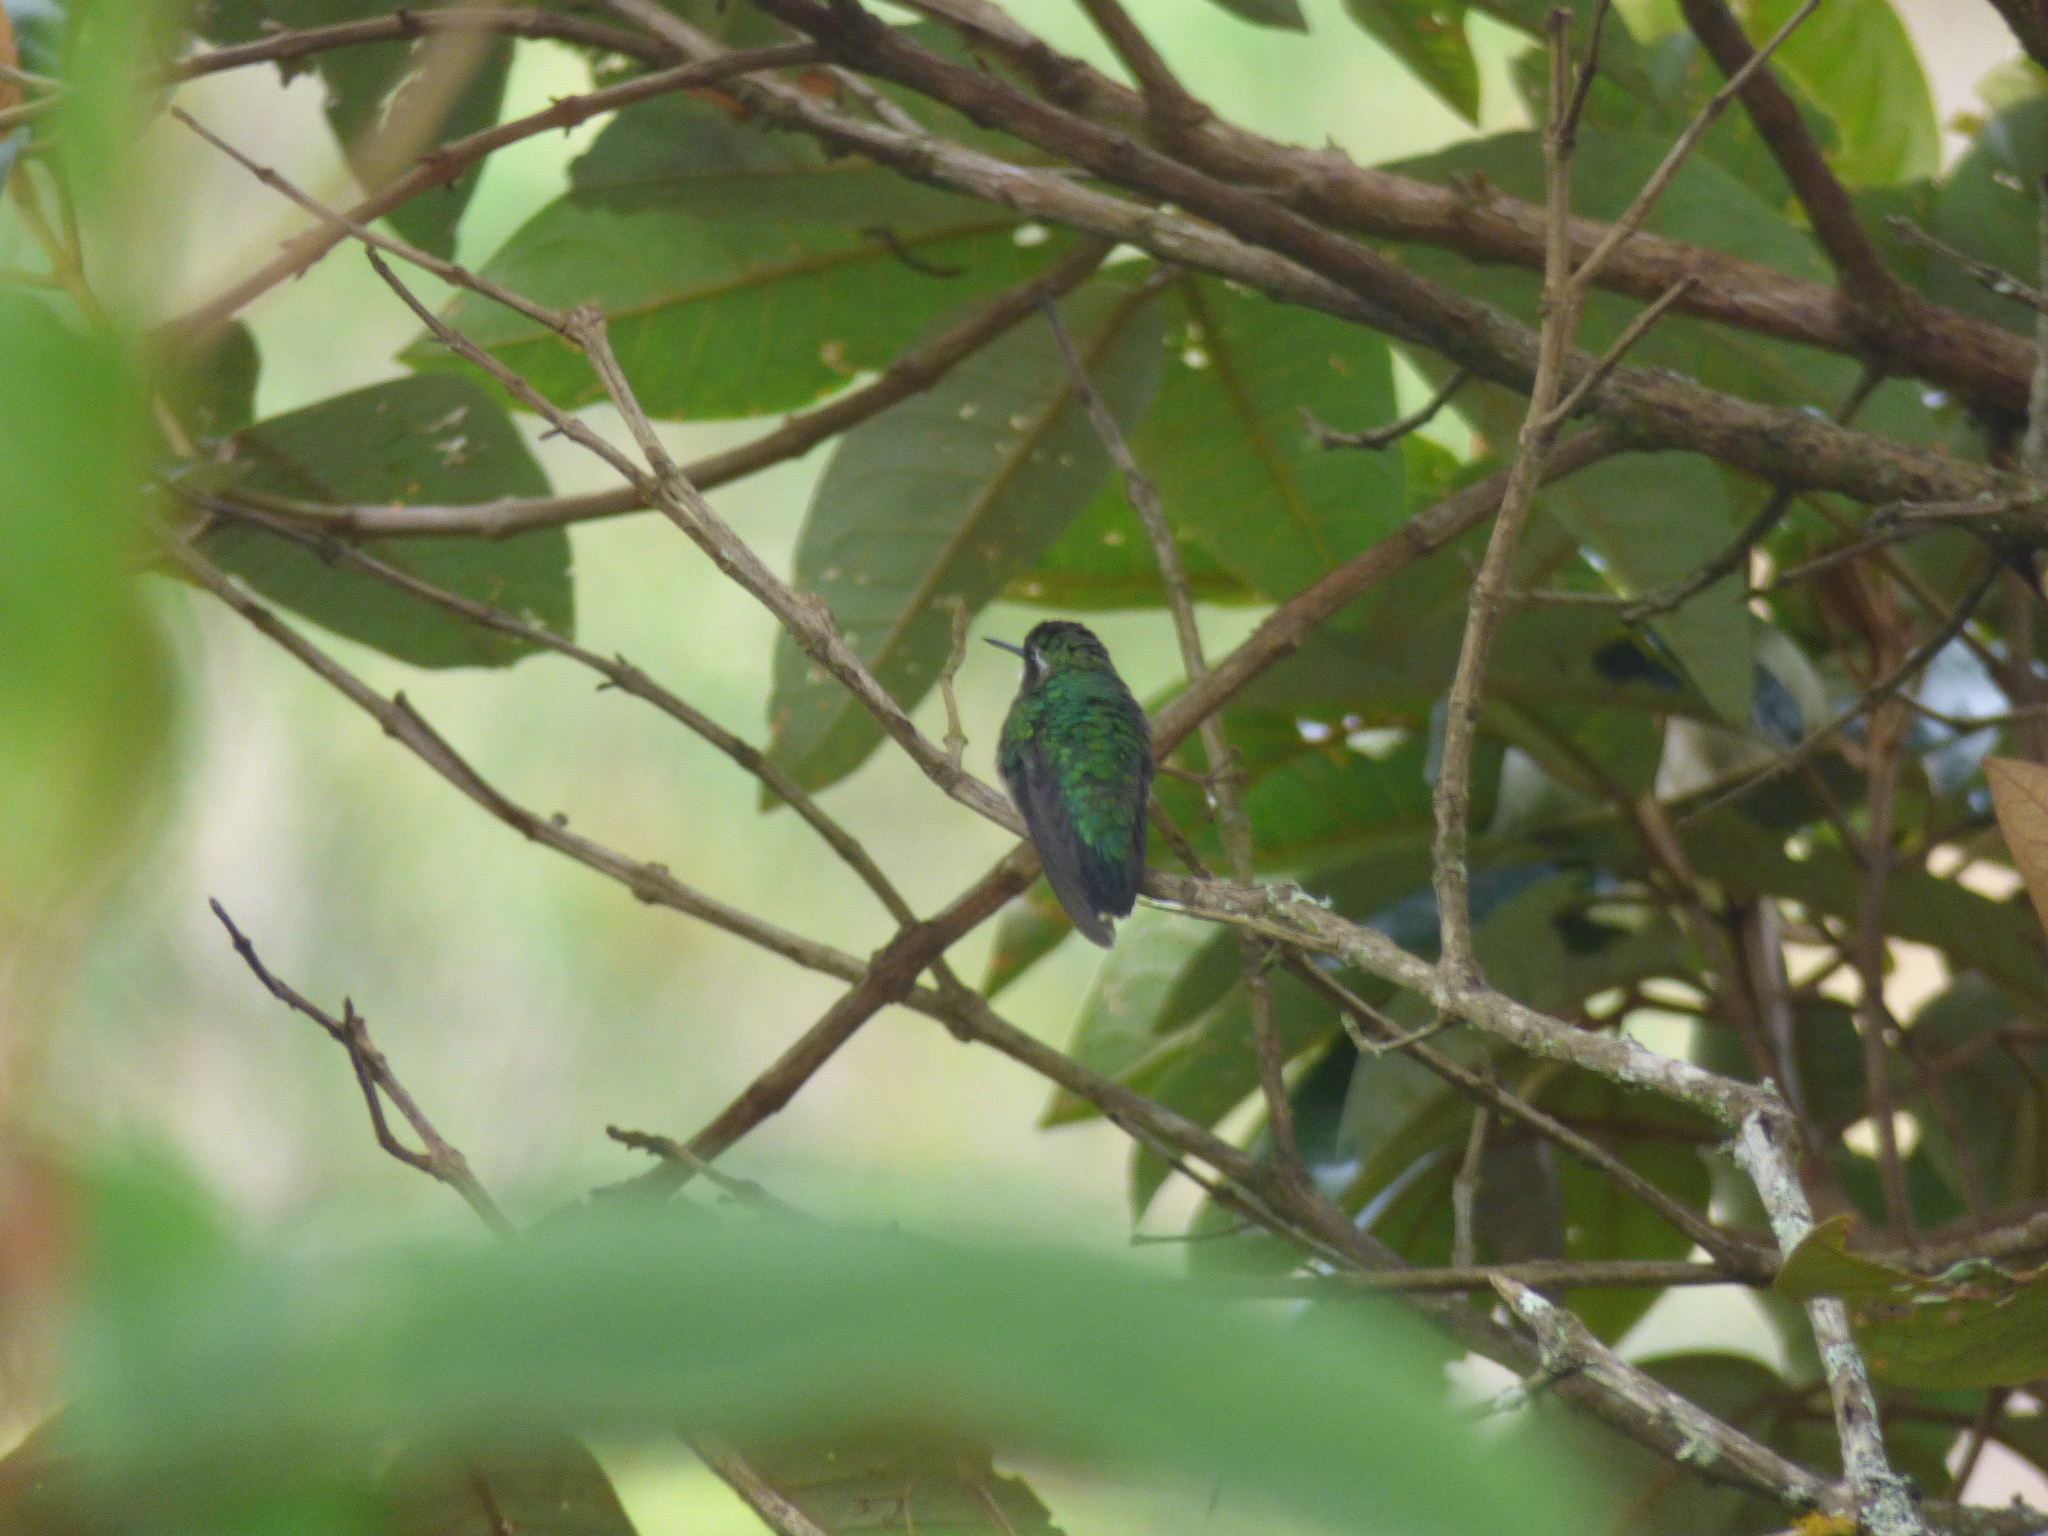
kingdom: Animalia
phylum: Chordata
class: Aves
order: Apodiformes
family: Trochilidae
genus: Chlorostilbon
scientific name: Chlorostilbon melanorhynchus
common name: Western emerald
